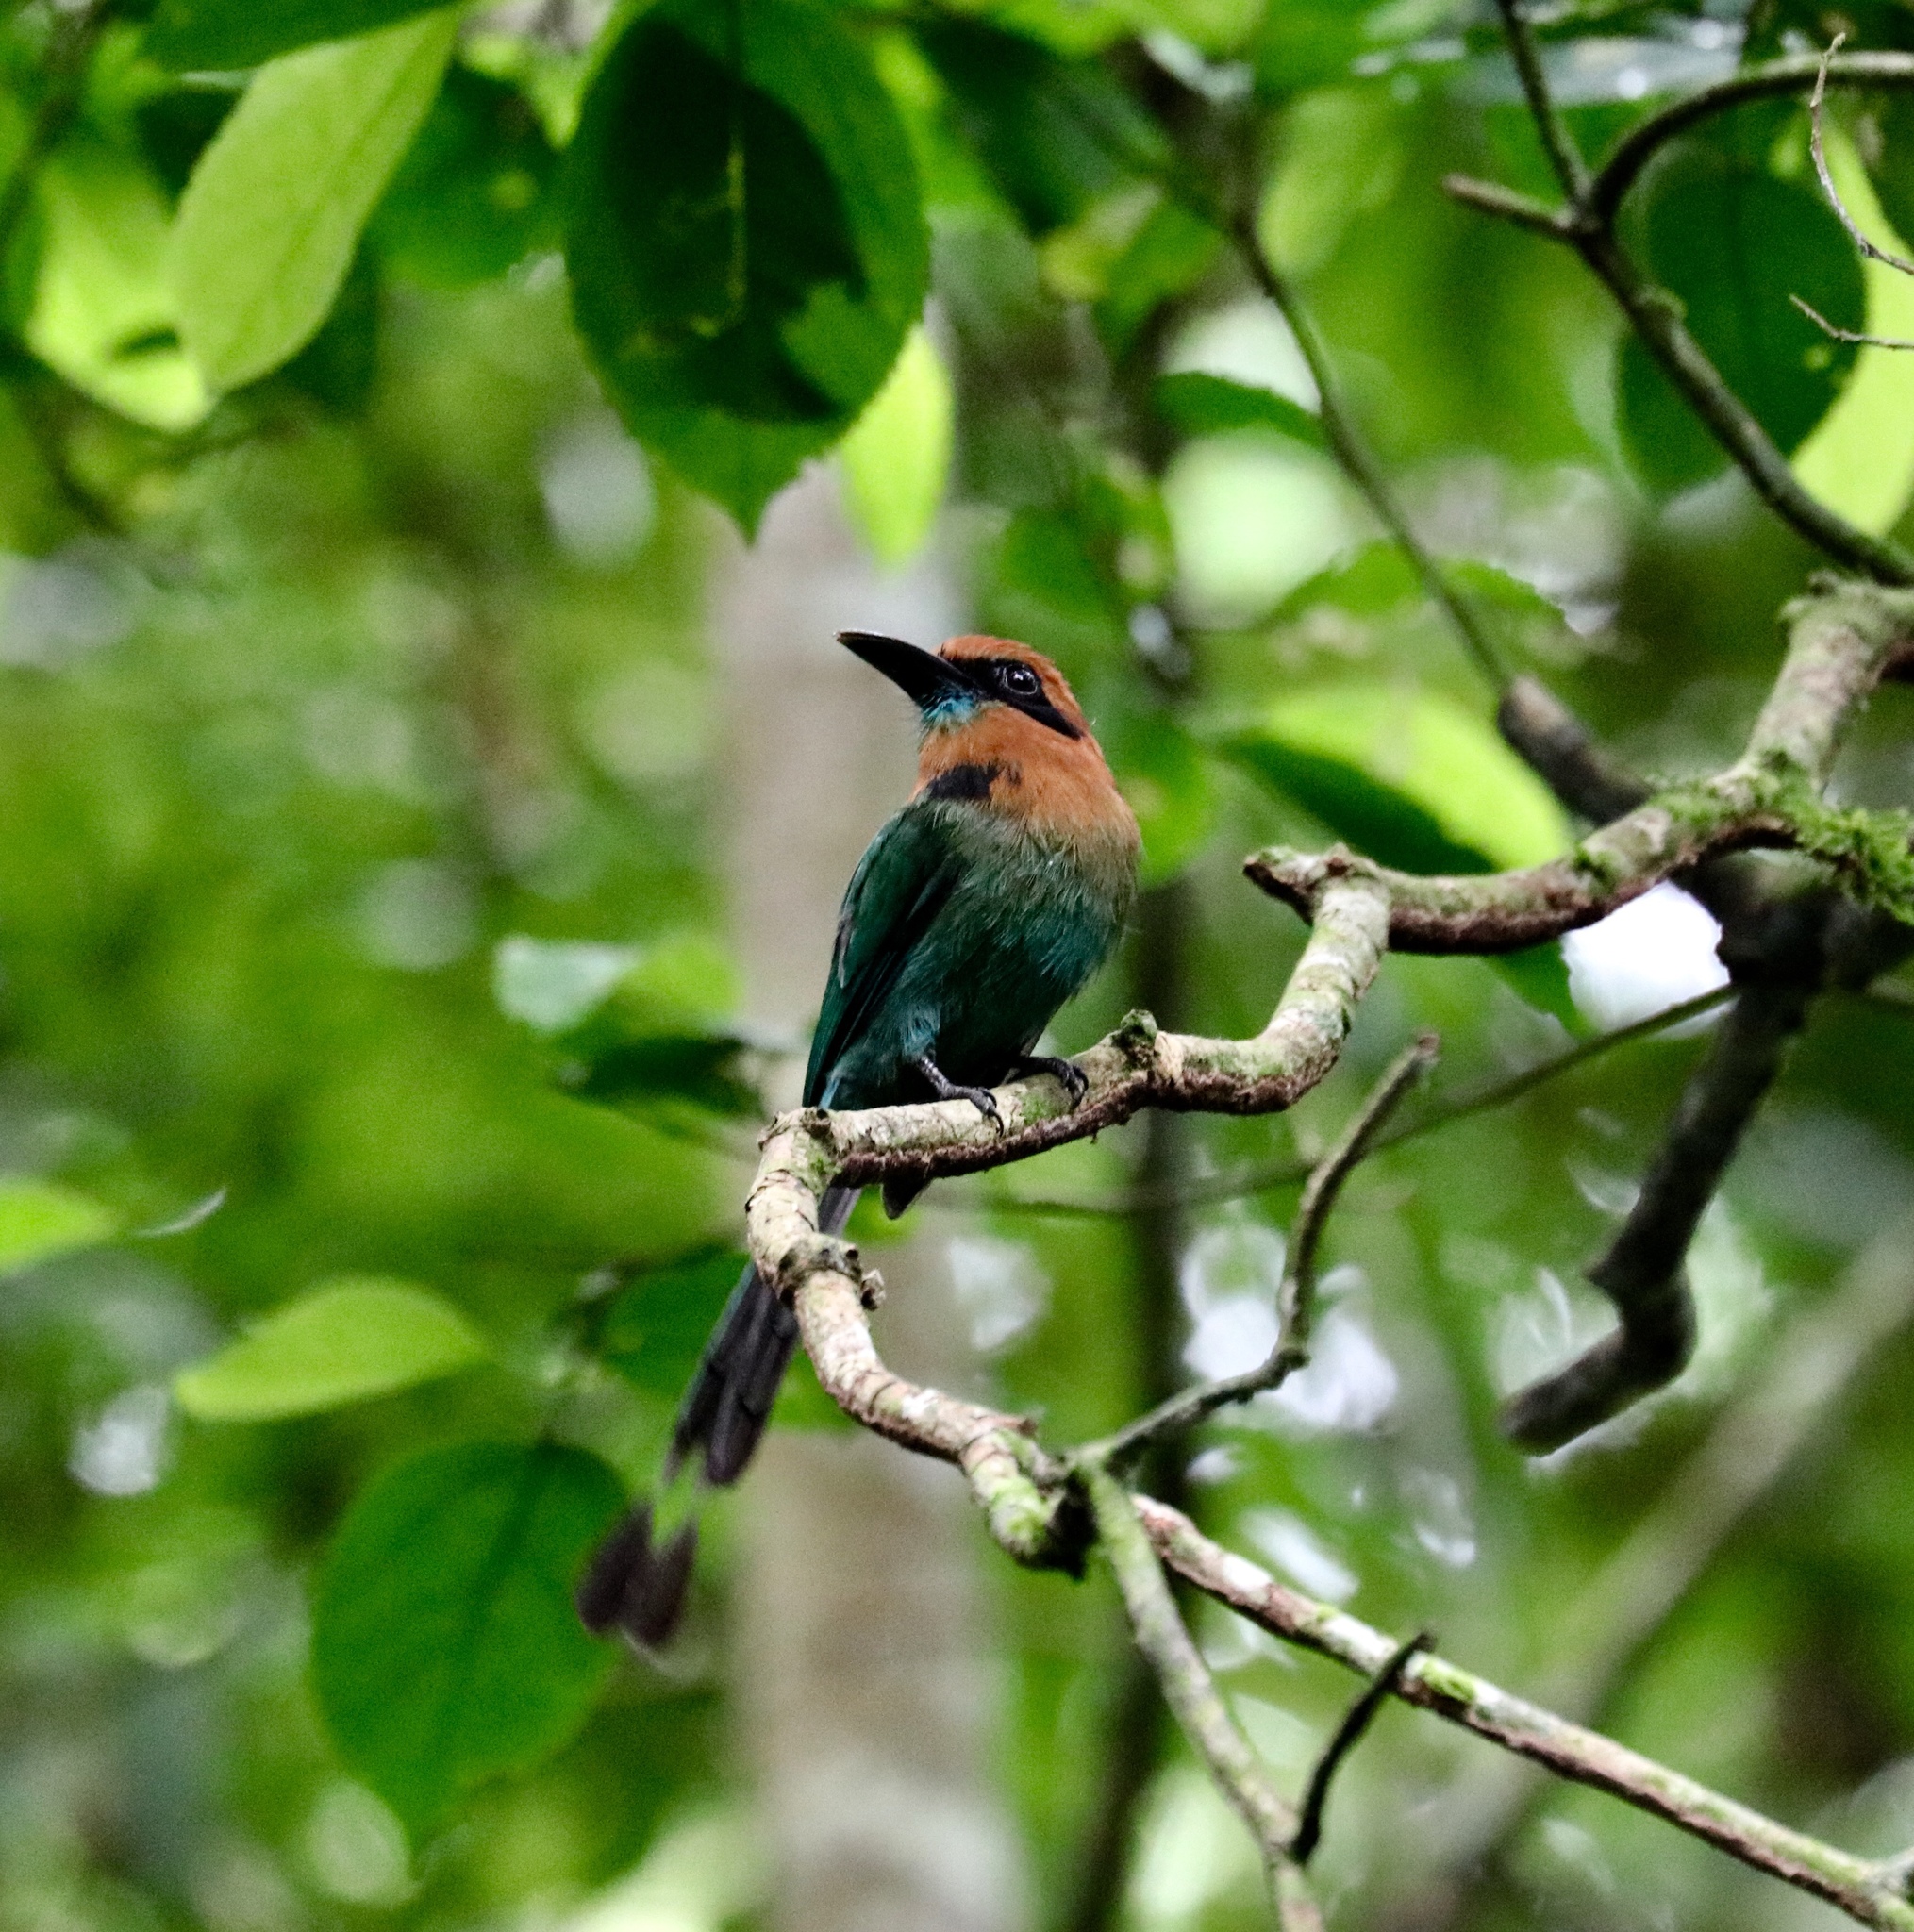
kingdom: Animalia
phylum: Chordata
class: Aves
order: Coraciiformes
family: Momotidae
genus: Electron
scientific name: Electron platyrhynchum
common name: Broad-billed motmot
